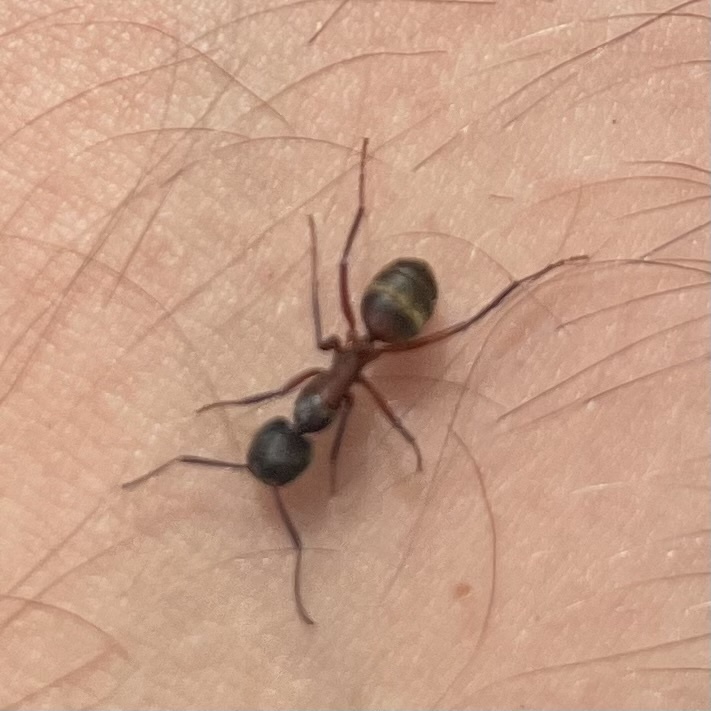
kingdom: Animalia
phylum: Arthropoda
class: Insecta
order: Hymenoptera
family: Formicidae
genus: Camponotus
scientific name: Camponotus chromaiodes
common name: Red carpenter ant
